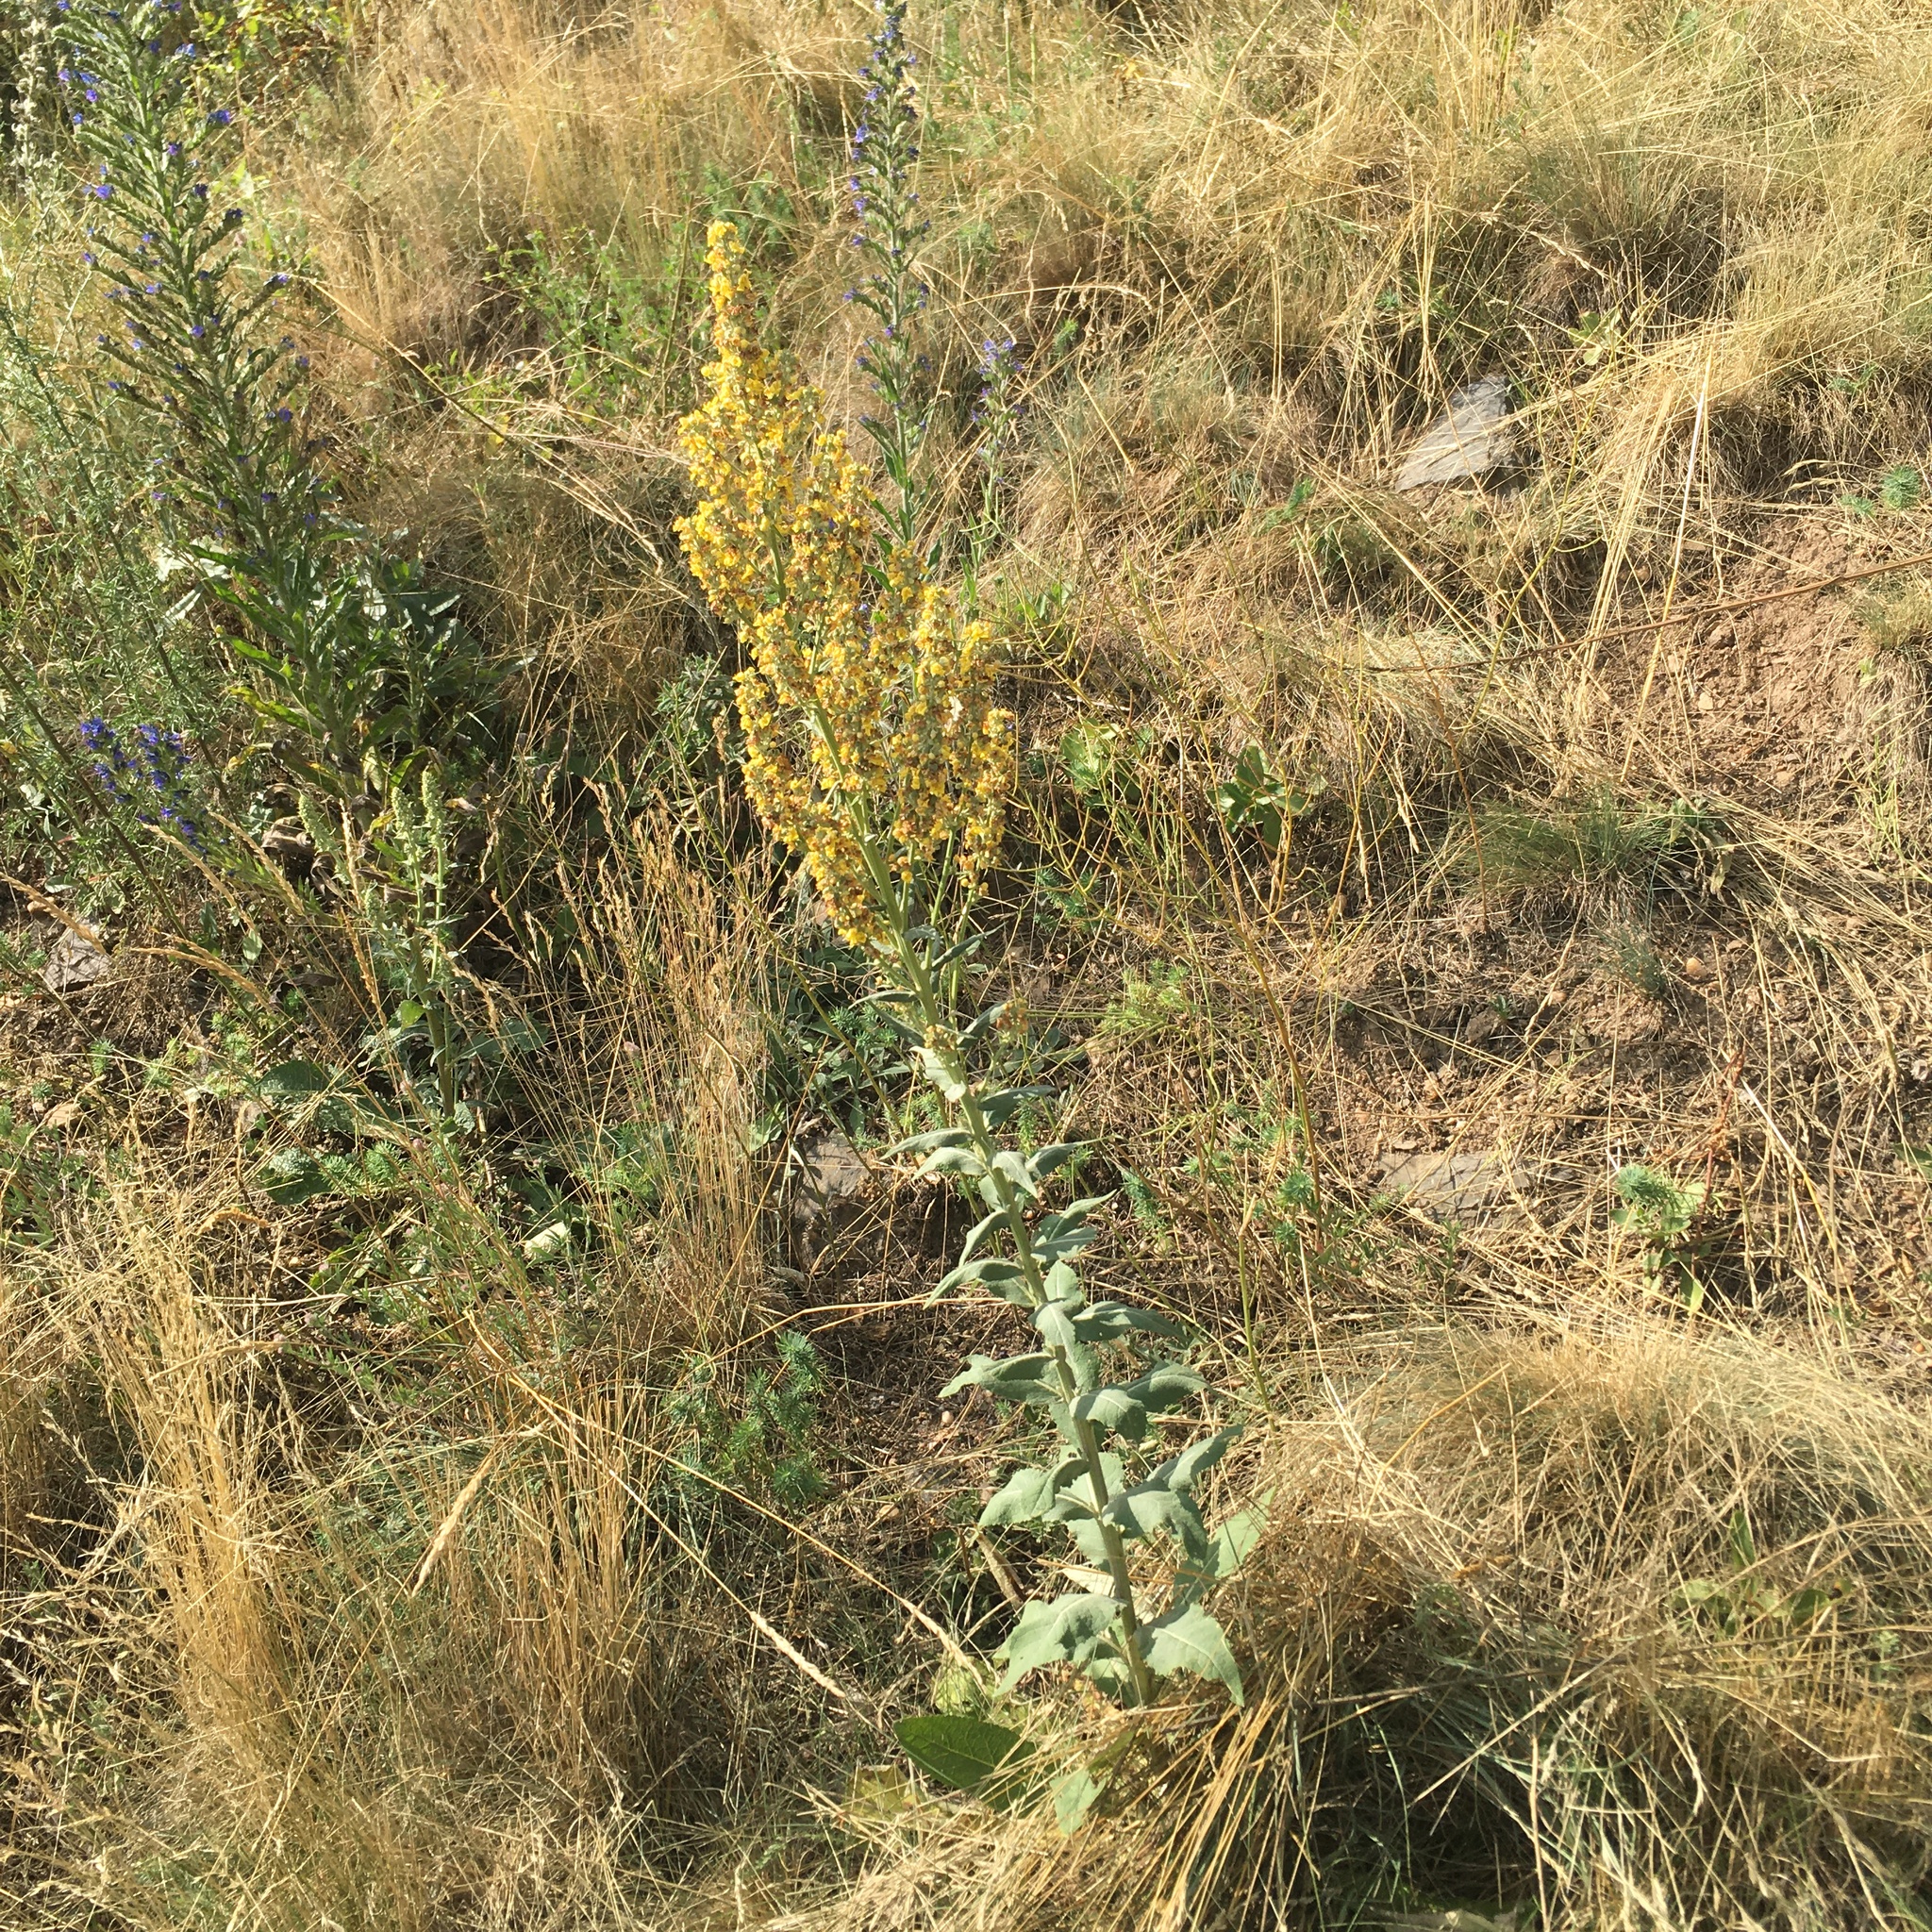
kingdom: Plantae
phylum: Tracheophyta
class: Magnoliopsida
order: Lamiales
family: Scrophulariaceae
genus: Verbascum
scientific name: Verbascum lychnitis
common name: White mullein
